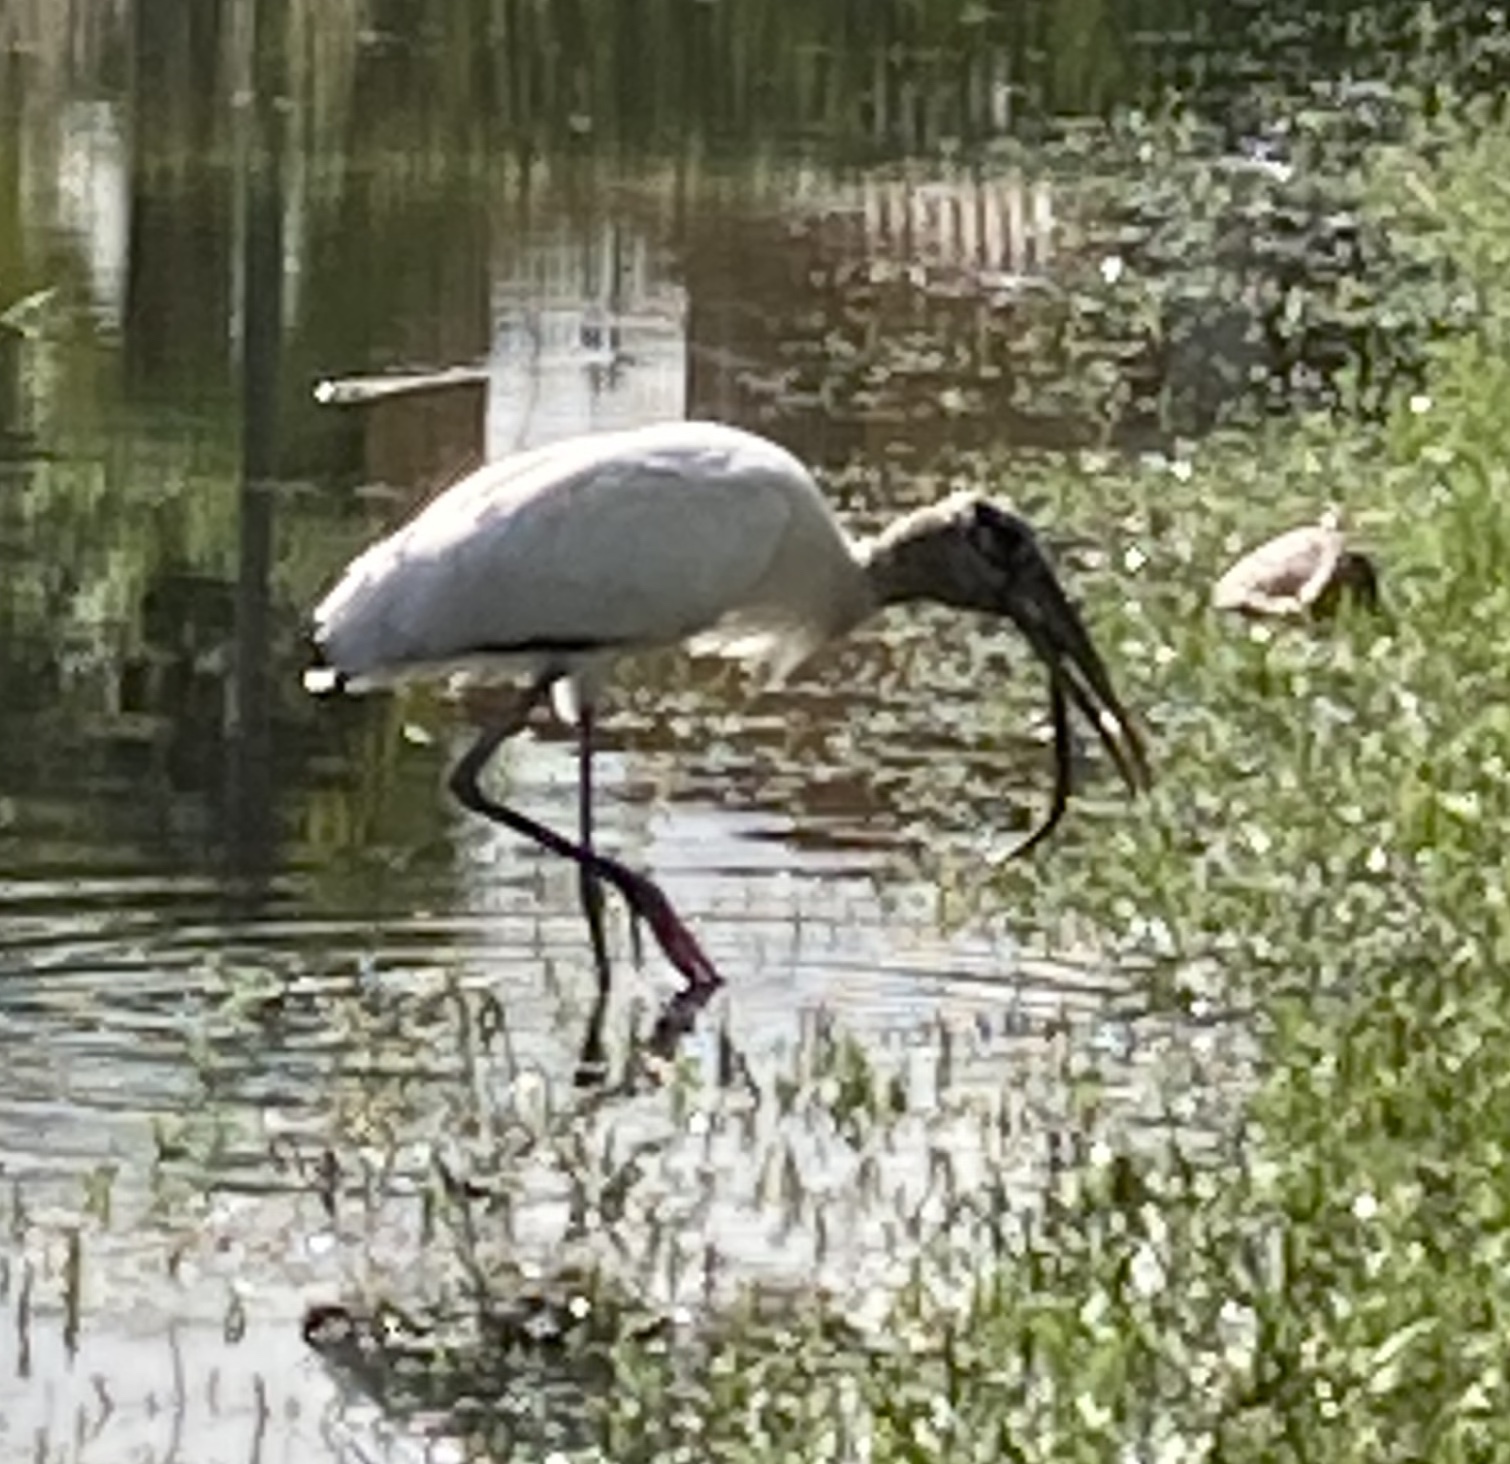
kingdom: Animalia
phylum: Chordata
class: Aves
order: Ciconiiformes
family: Ciconiidae
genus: Mycteria
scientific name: Mycteria americana
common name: Wood stork
